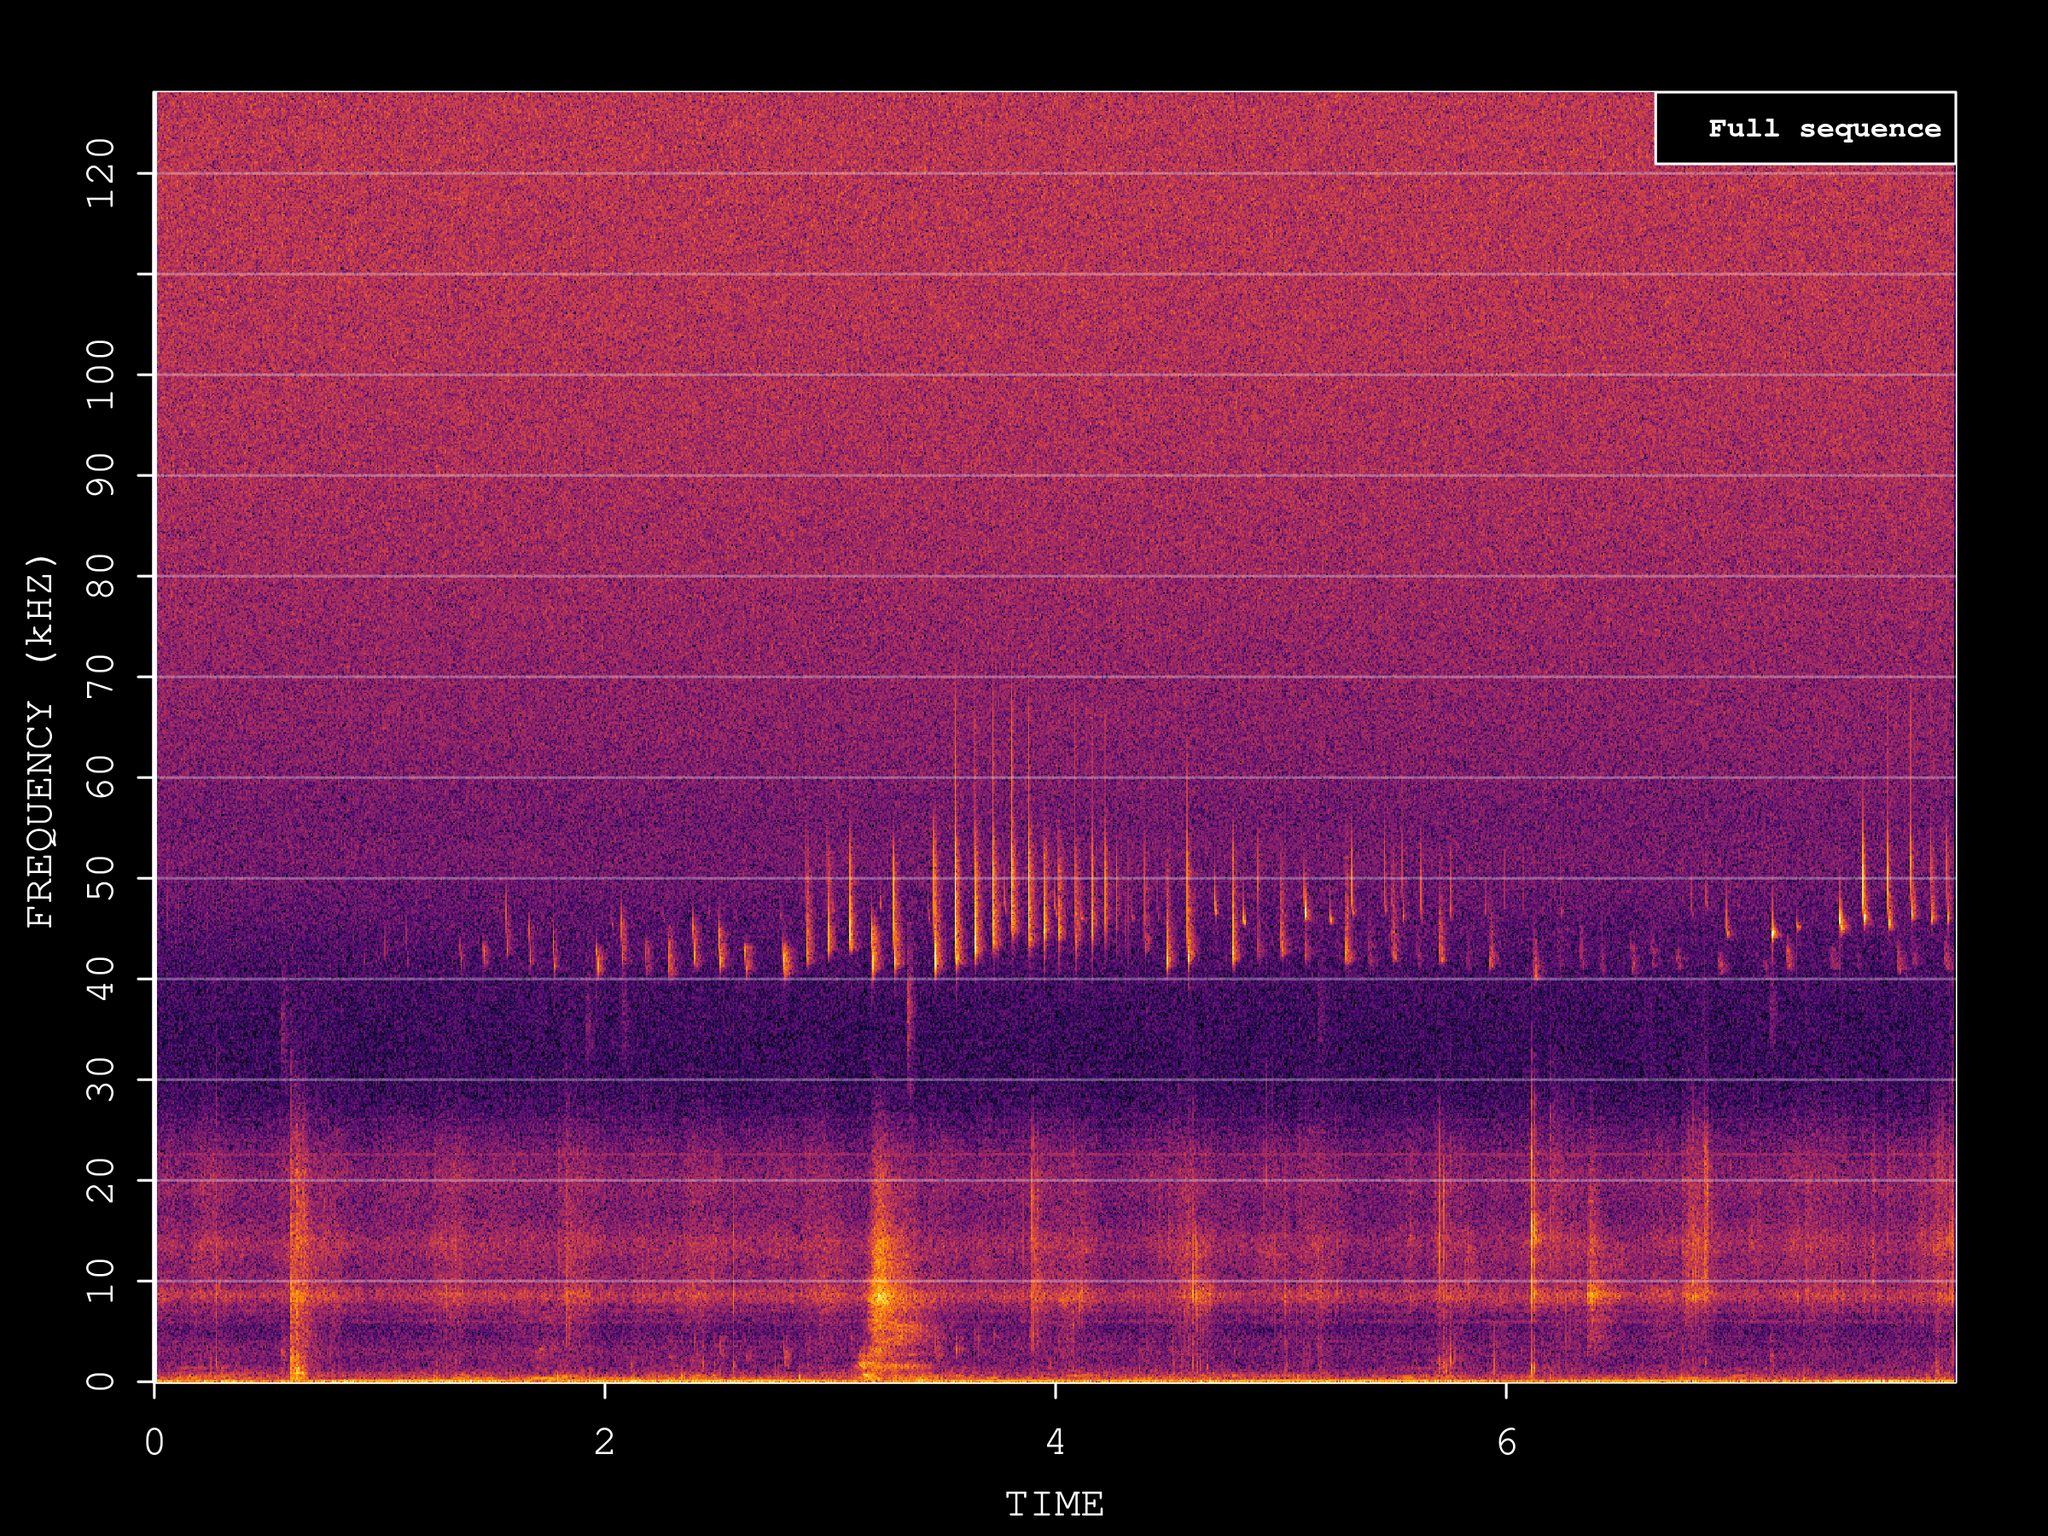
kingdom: Animalia
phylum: Chordata
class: Mammalia
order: Chiroptera
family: Vespertilionidae
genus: Pipistrellus
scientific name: Pipistrellus pipistrellus
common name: Common pipistrelle
